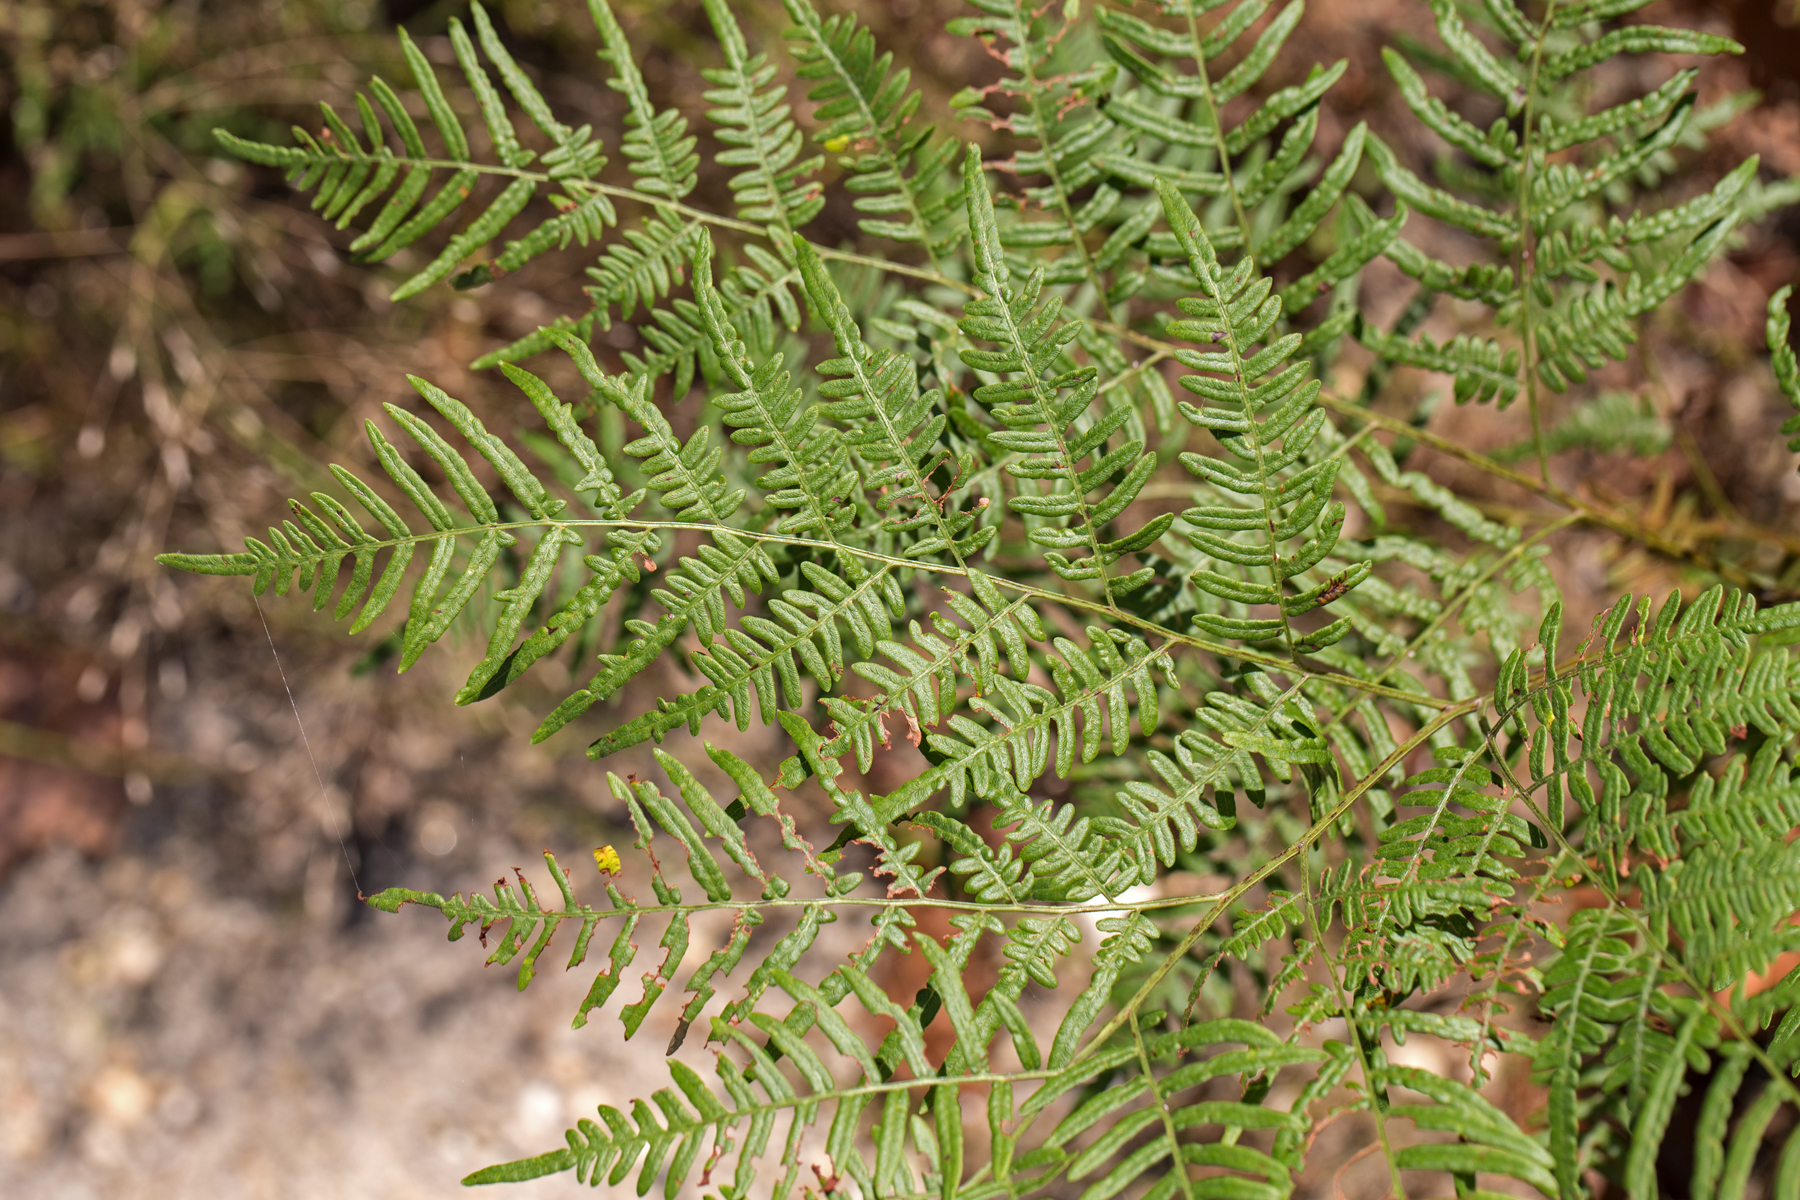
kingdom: Plantae
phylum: Tracheophyta
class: Polypodiopsida
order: Polypodiales
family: Dennstaedtiaceae
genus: Pteridium
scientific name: Pteridium aquilinum
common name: Bracken
